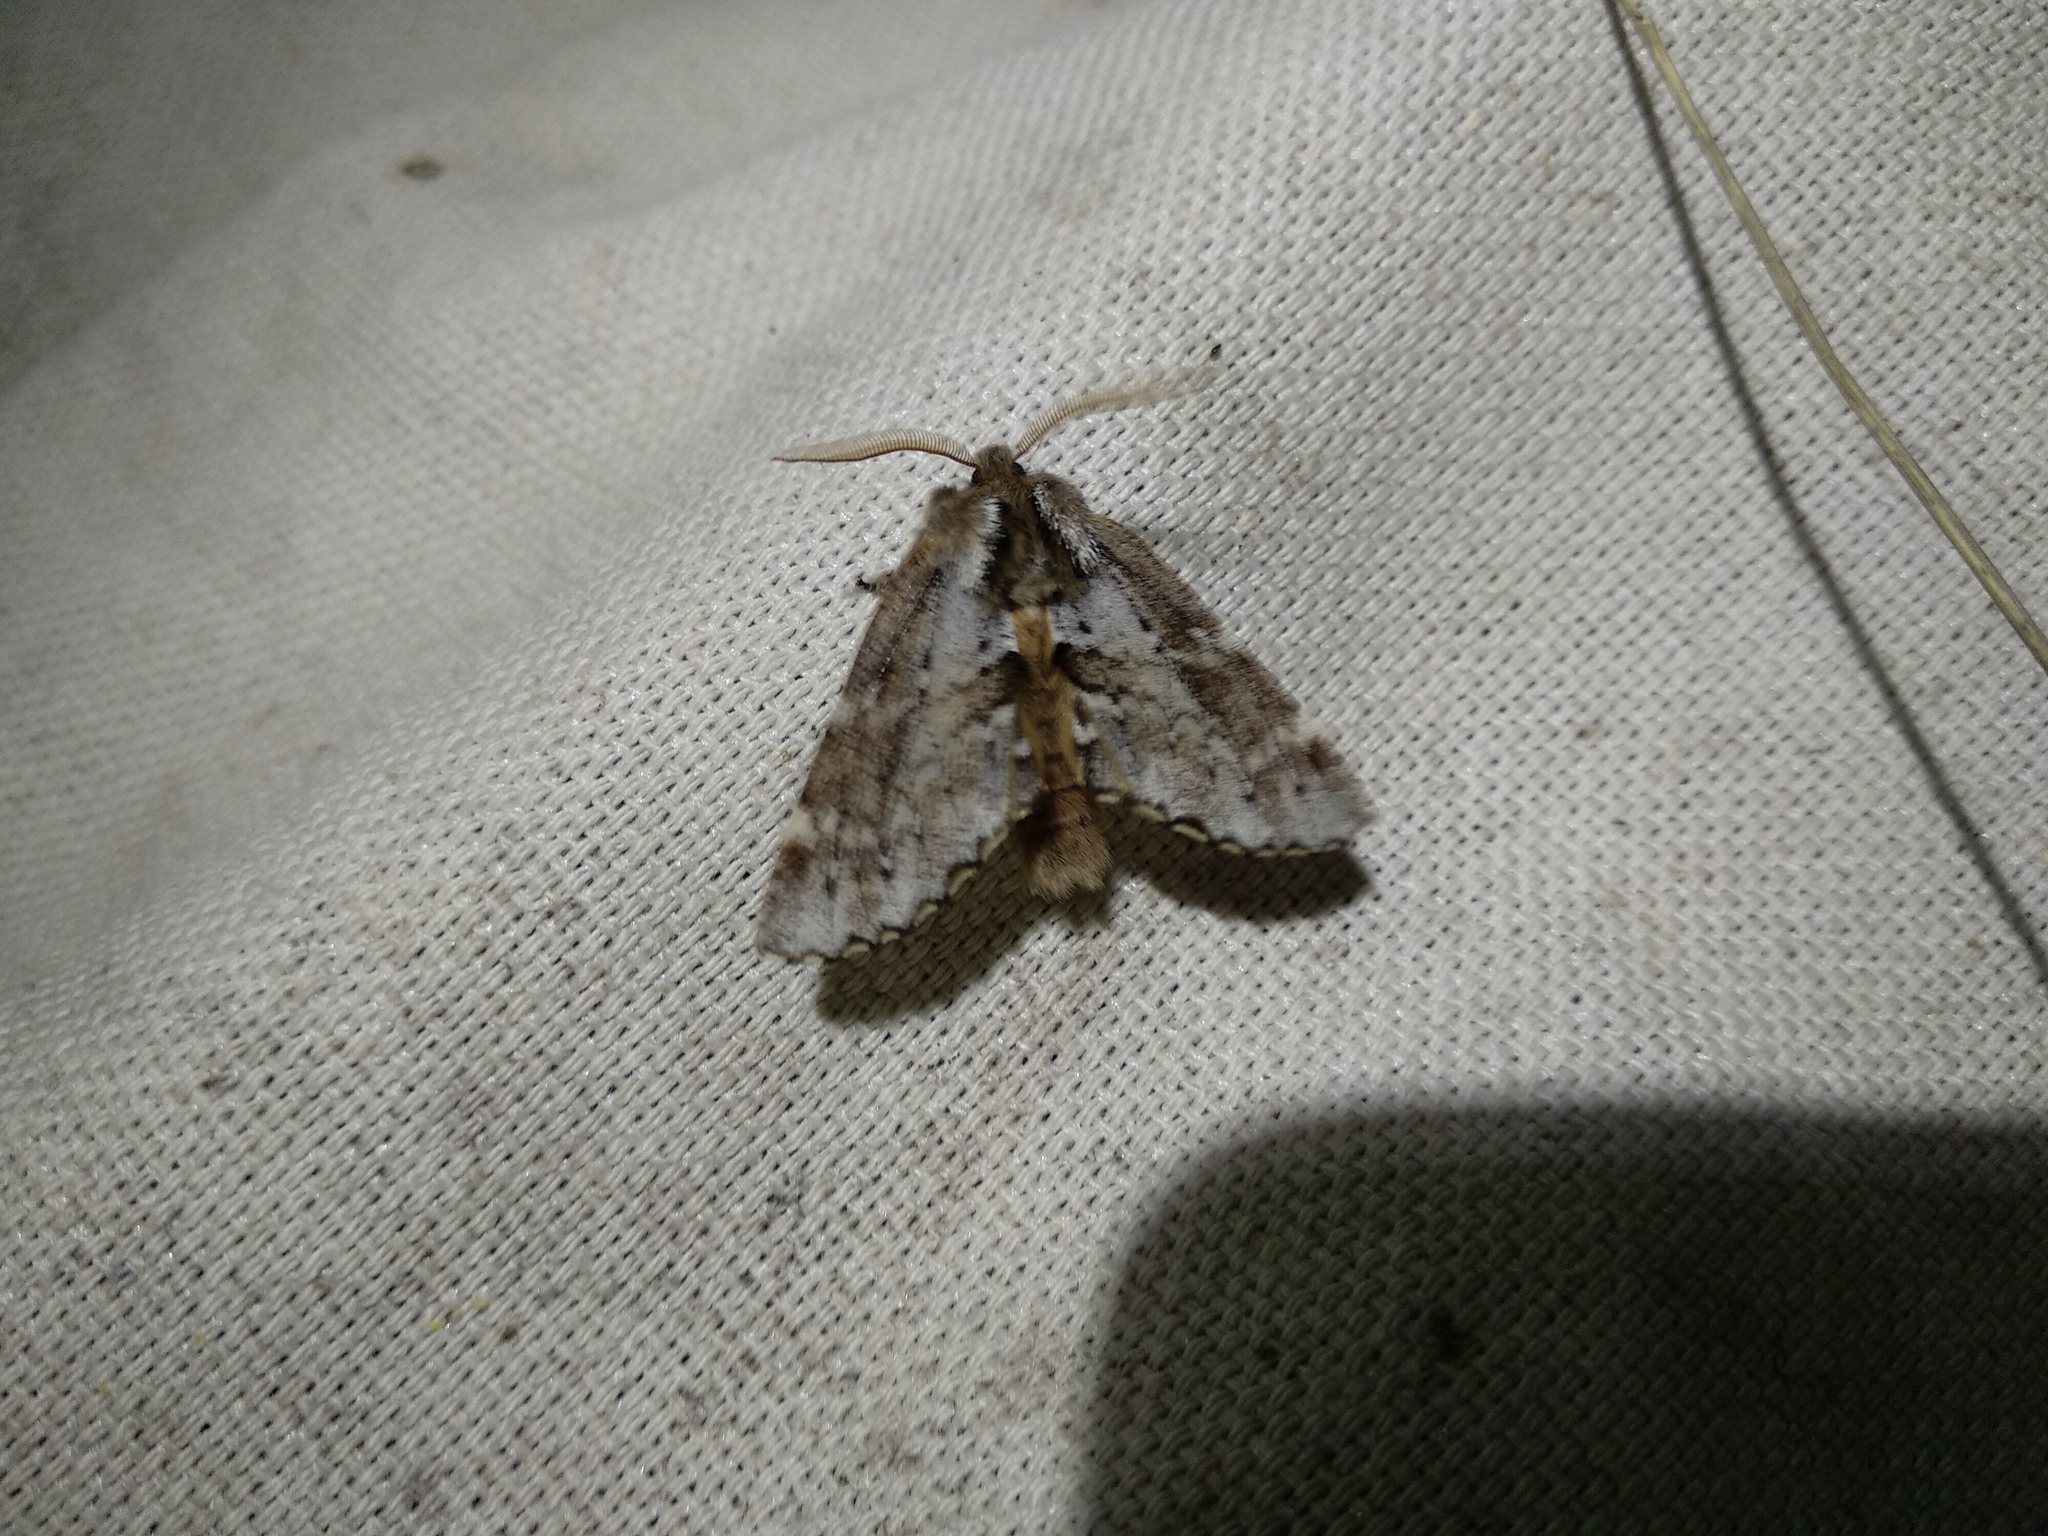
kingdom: Animalia
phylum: Arthropoda
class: Insecta
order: Lepidoptera
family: Notodontidae
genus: Odontosia
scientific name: Odontosia sieversii
